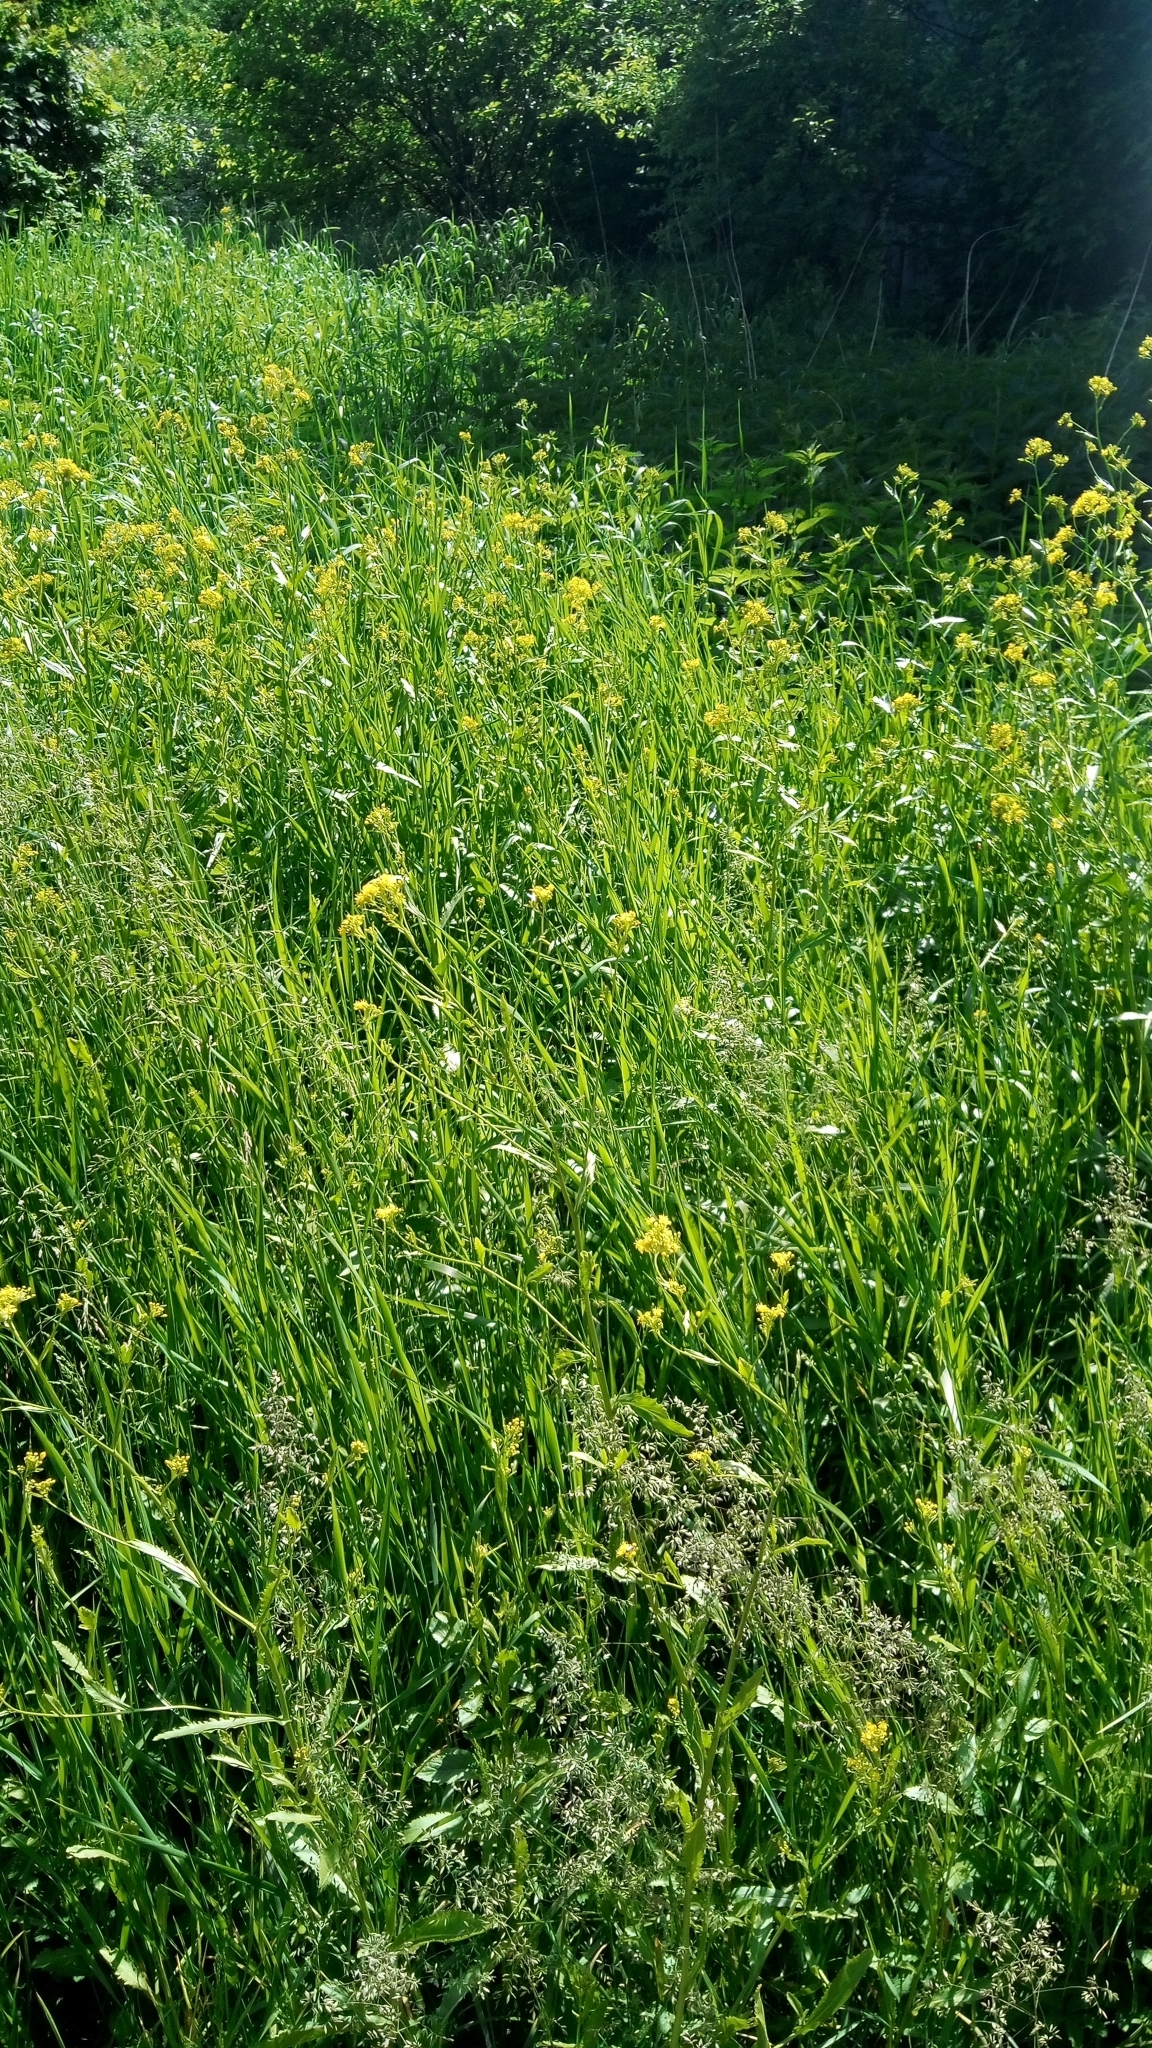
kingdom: Plantae
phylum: Tracheophyta
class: Magnoliopsida
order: Brassicales
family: Brassicaceae
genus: Rorippa
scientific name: Rorippa austriaca
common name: Austrian yellow-cress
